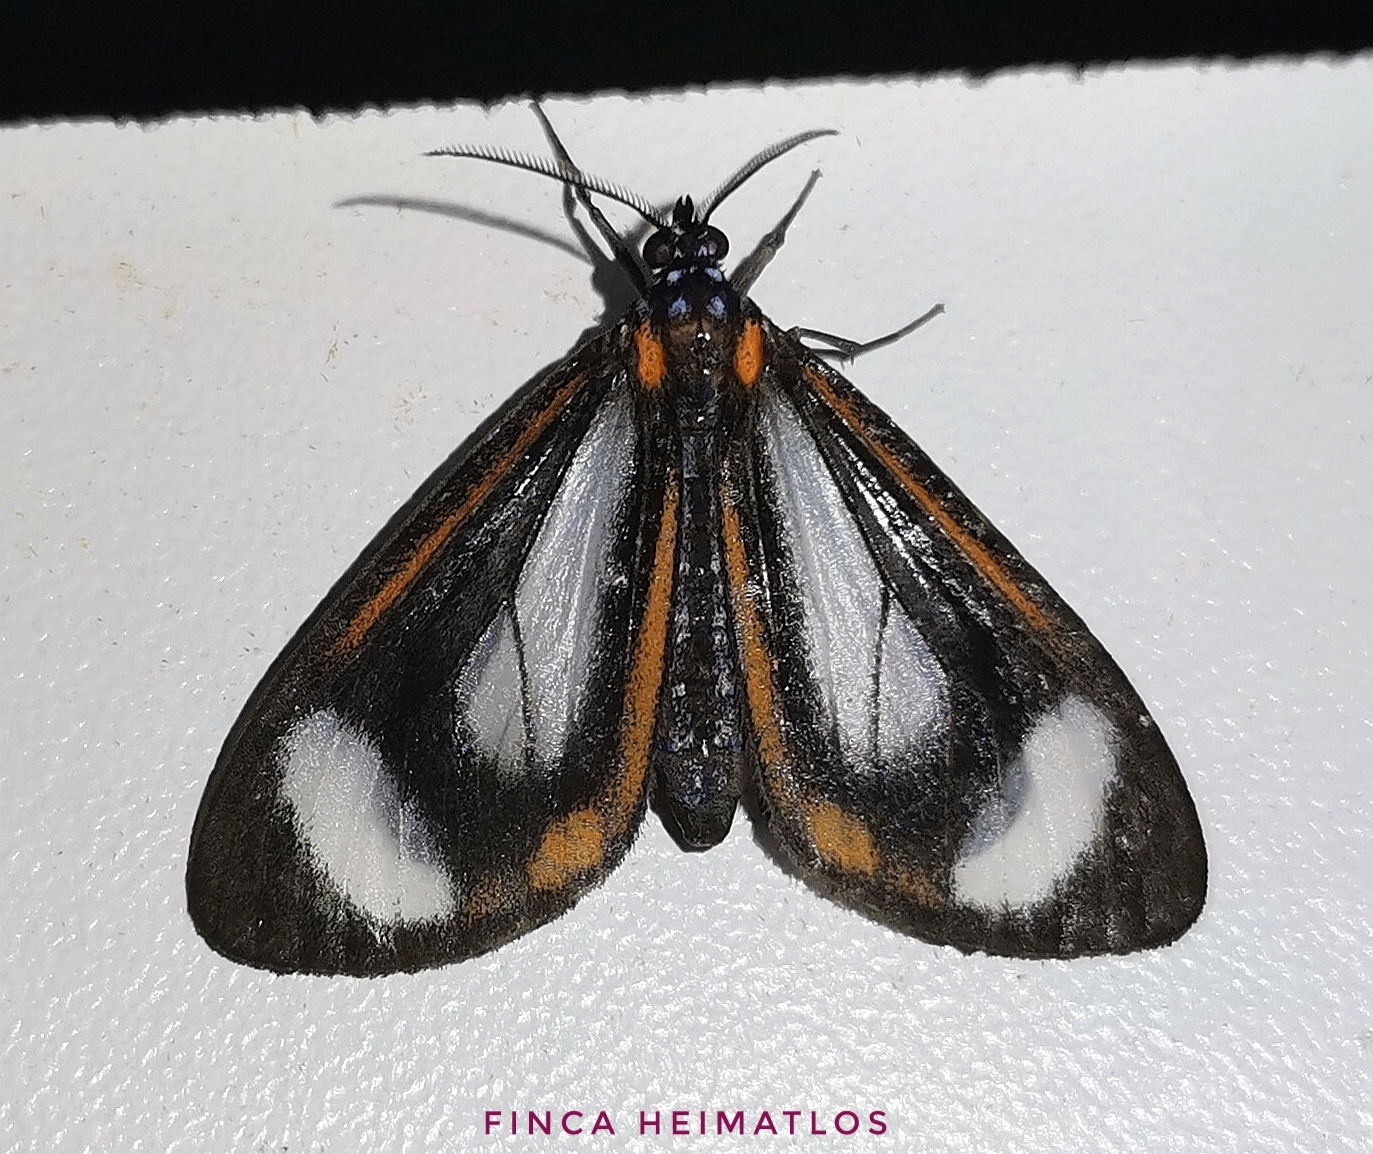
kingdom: Animalia
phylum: Arthropoda
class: Insecta
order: Lepidoptera
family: Erebidae
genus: Hyalurga
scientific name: Hyalurga leucophlebia
